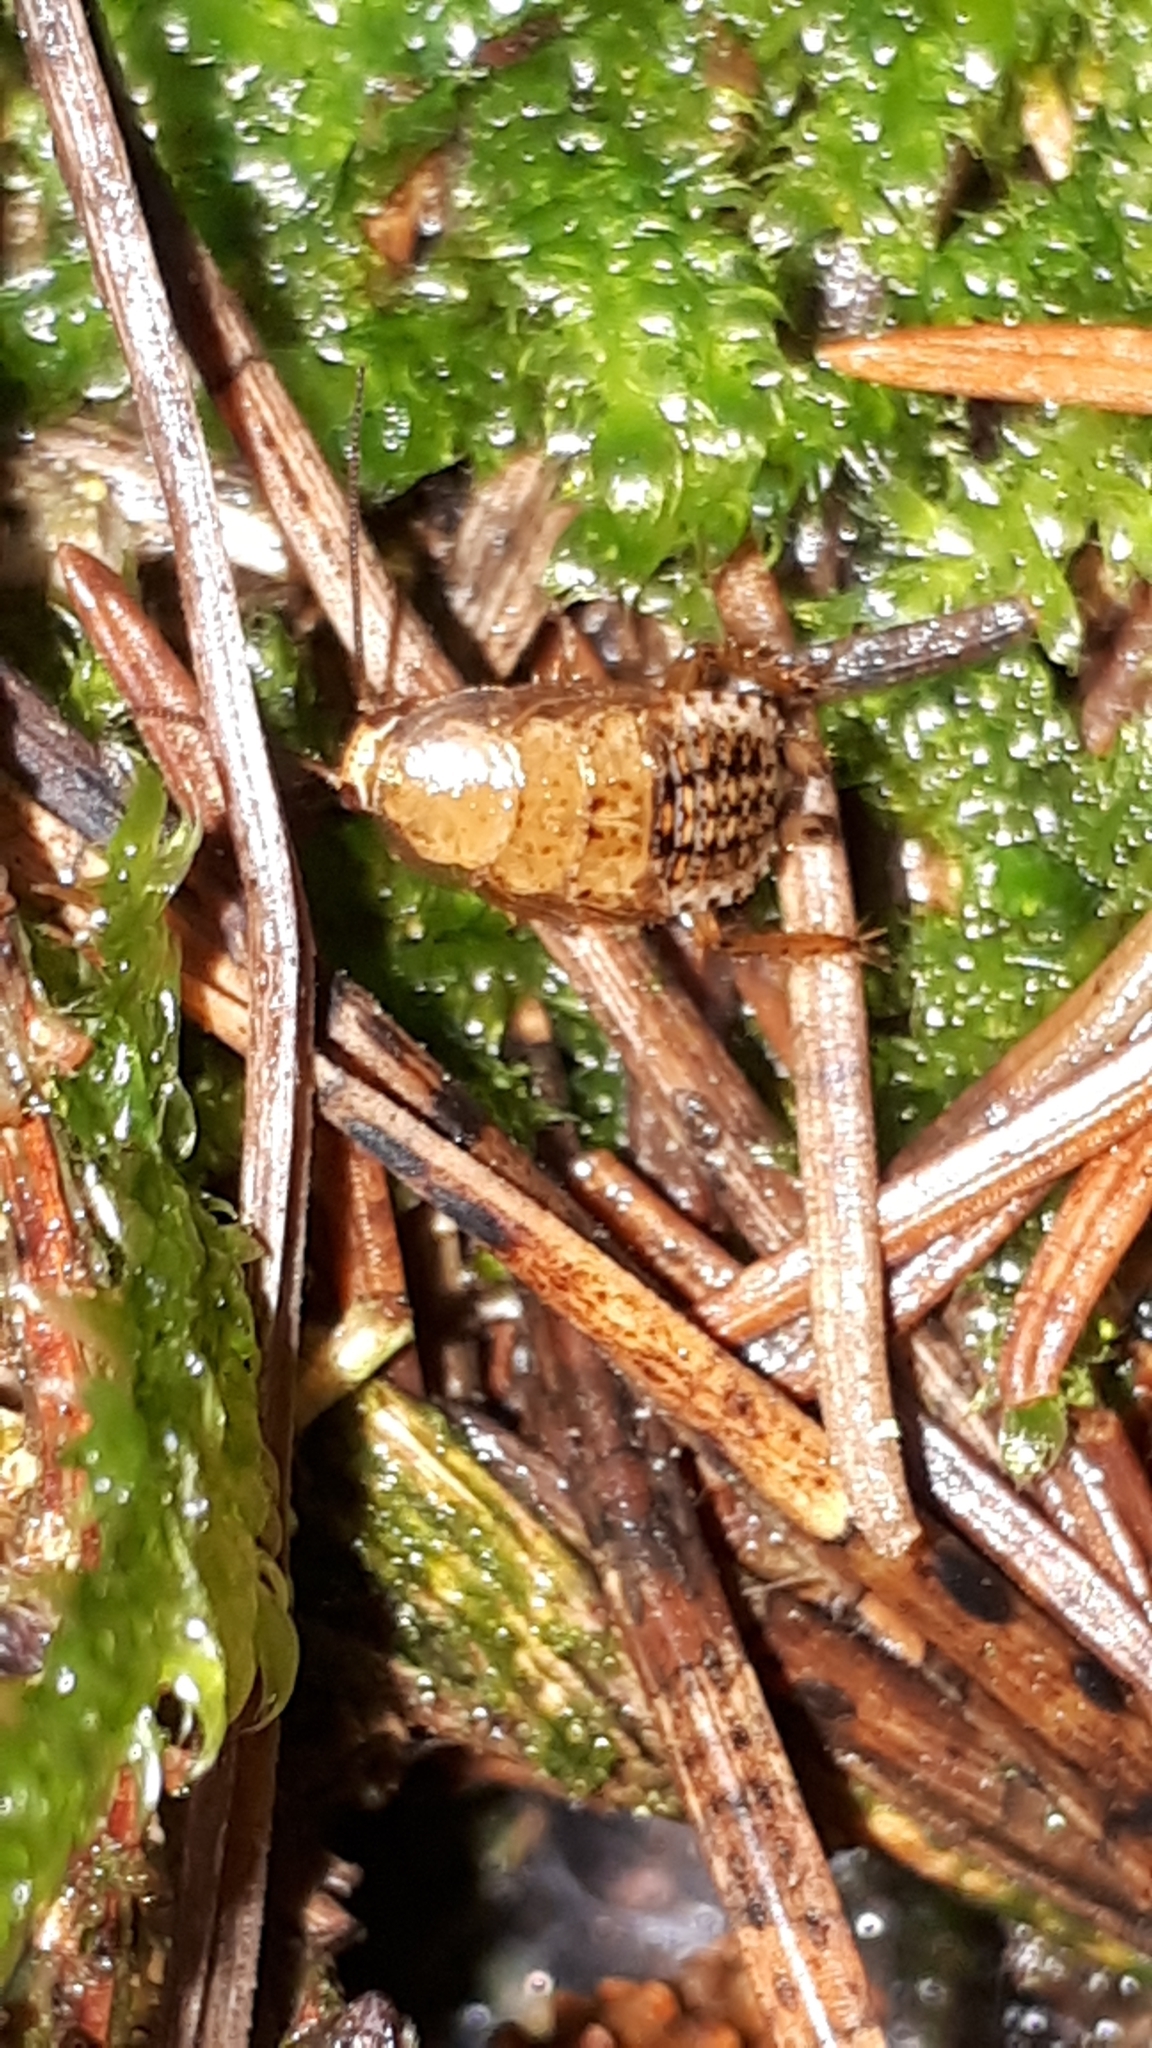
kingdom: Animalia
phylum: Arthropoda
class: Insecta
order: Blattodea
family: Ectobiidae
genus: Ectobius
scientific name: Ectobius lapponicus
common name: Dusky cockroach
